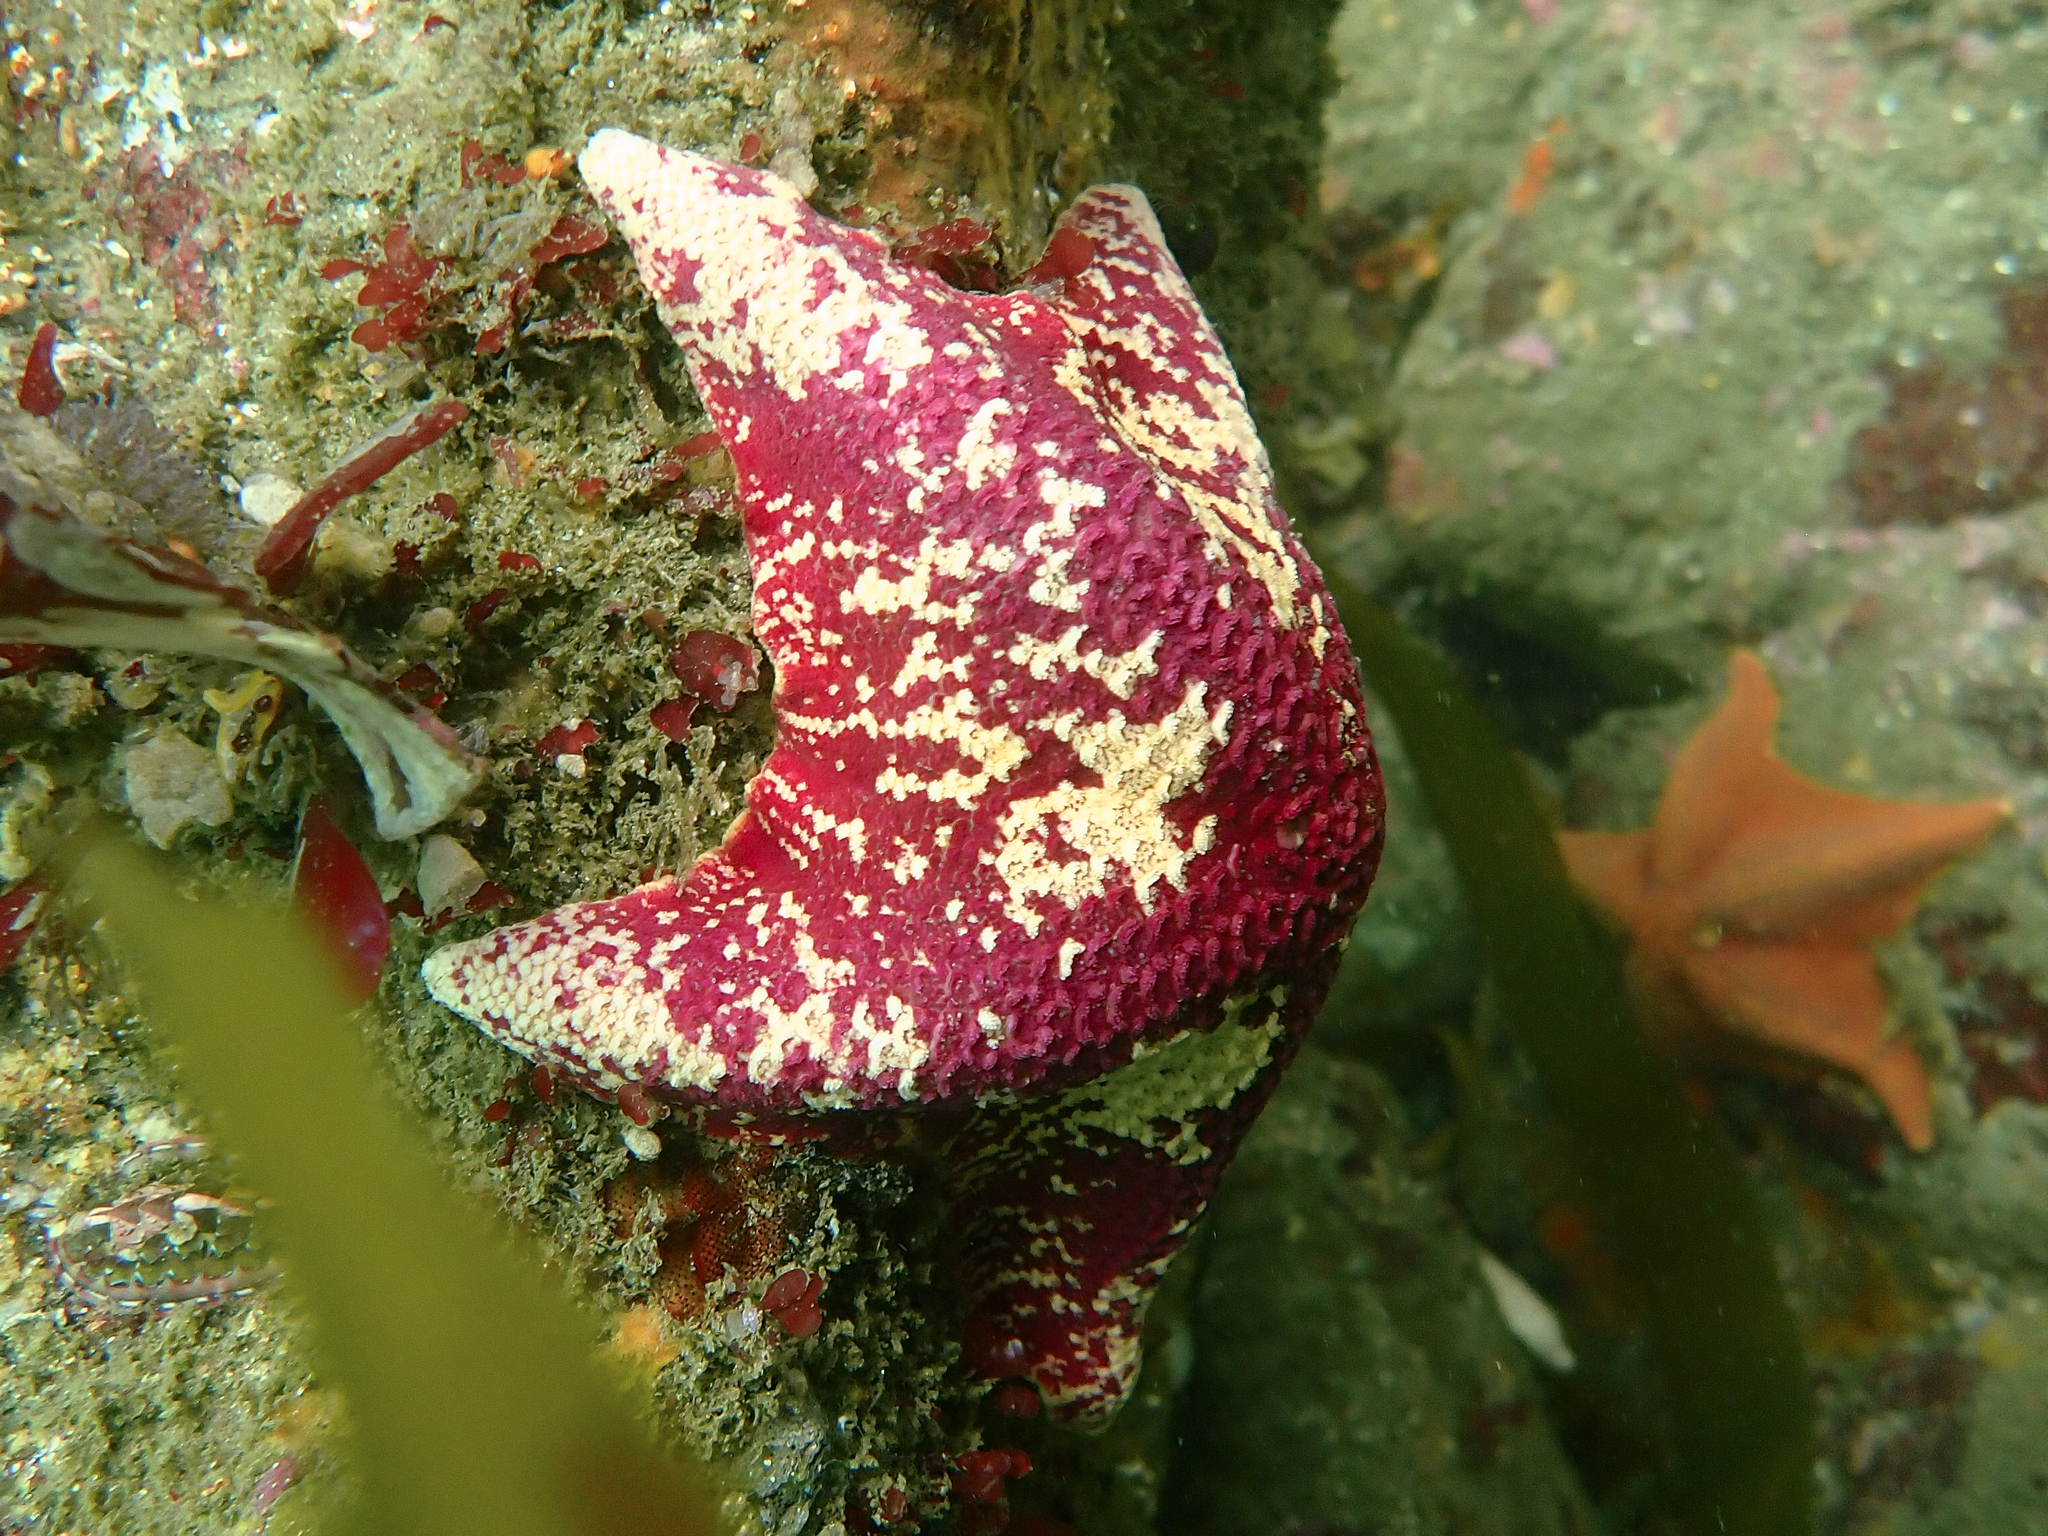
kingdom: Animalia
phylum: Echinodermata
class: Asteroidea
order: Valvatida
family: Asterinidae
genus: Patiria
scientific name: Patiria miniata
